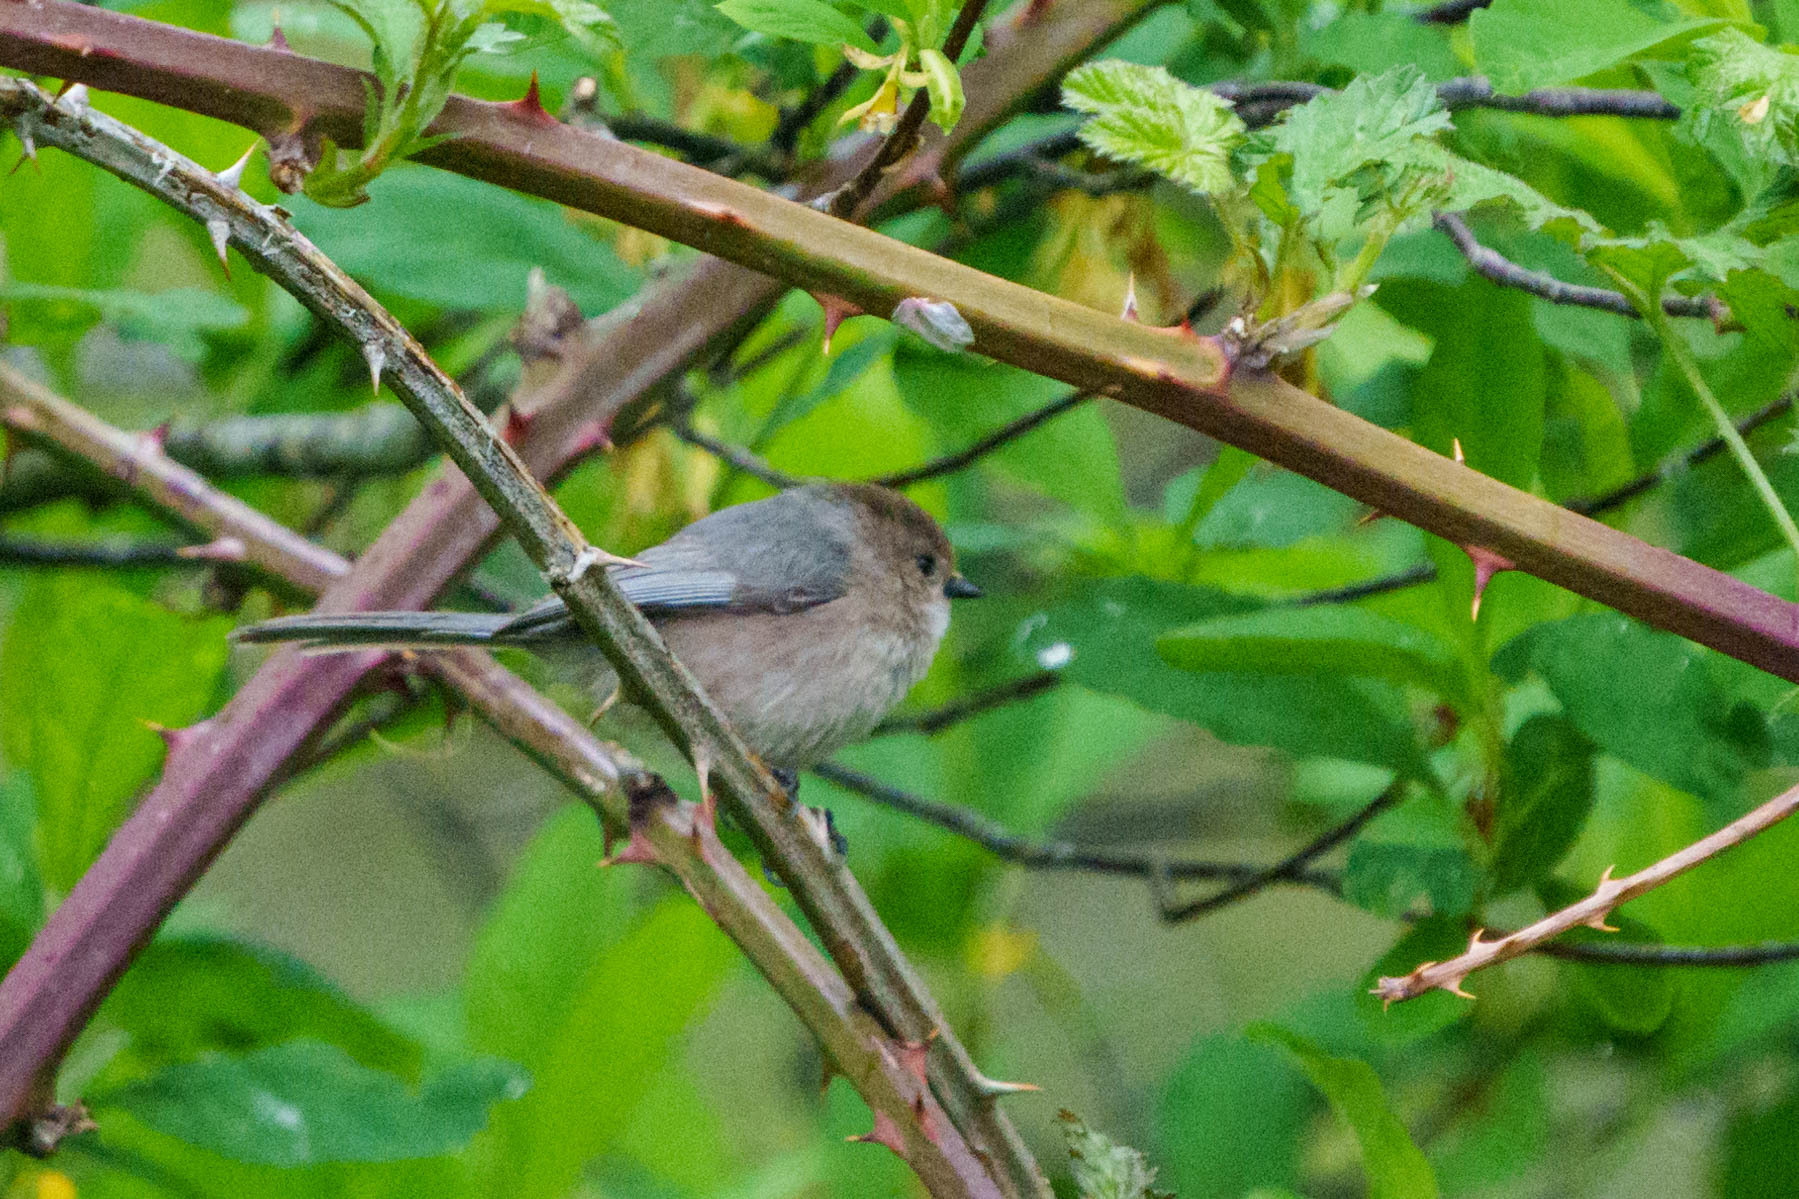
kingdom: Animalia
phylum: Chordata
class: Aves
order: Passeriformes
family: Aegithalidae
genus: Psaltriparus
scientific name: Psaltriparus minimus
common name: American bushtit
